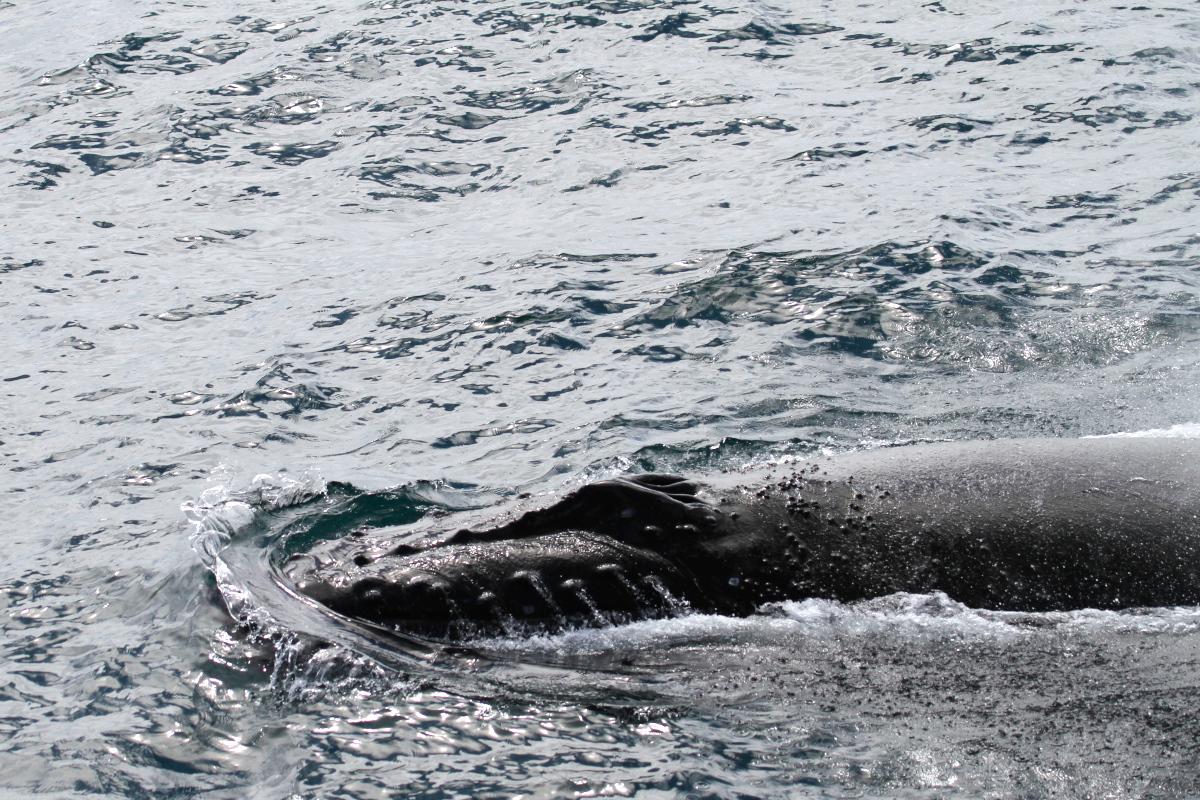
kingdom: Animalia
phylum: Chordata
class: Mammalia
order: Cetacea
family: Balaenopteridae
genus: Megaptera
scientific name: Megaptera novaeangliae
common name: Humpback whale
